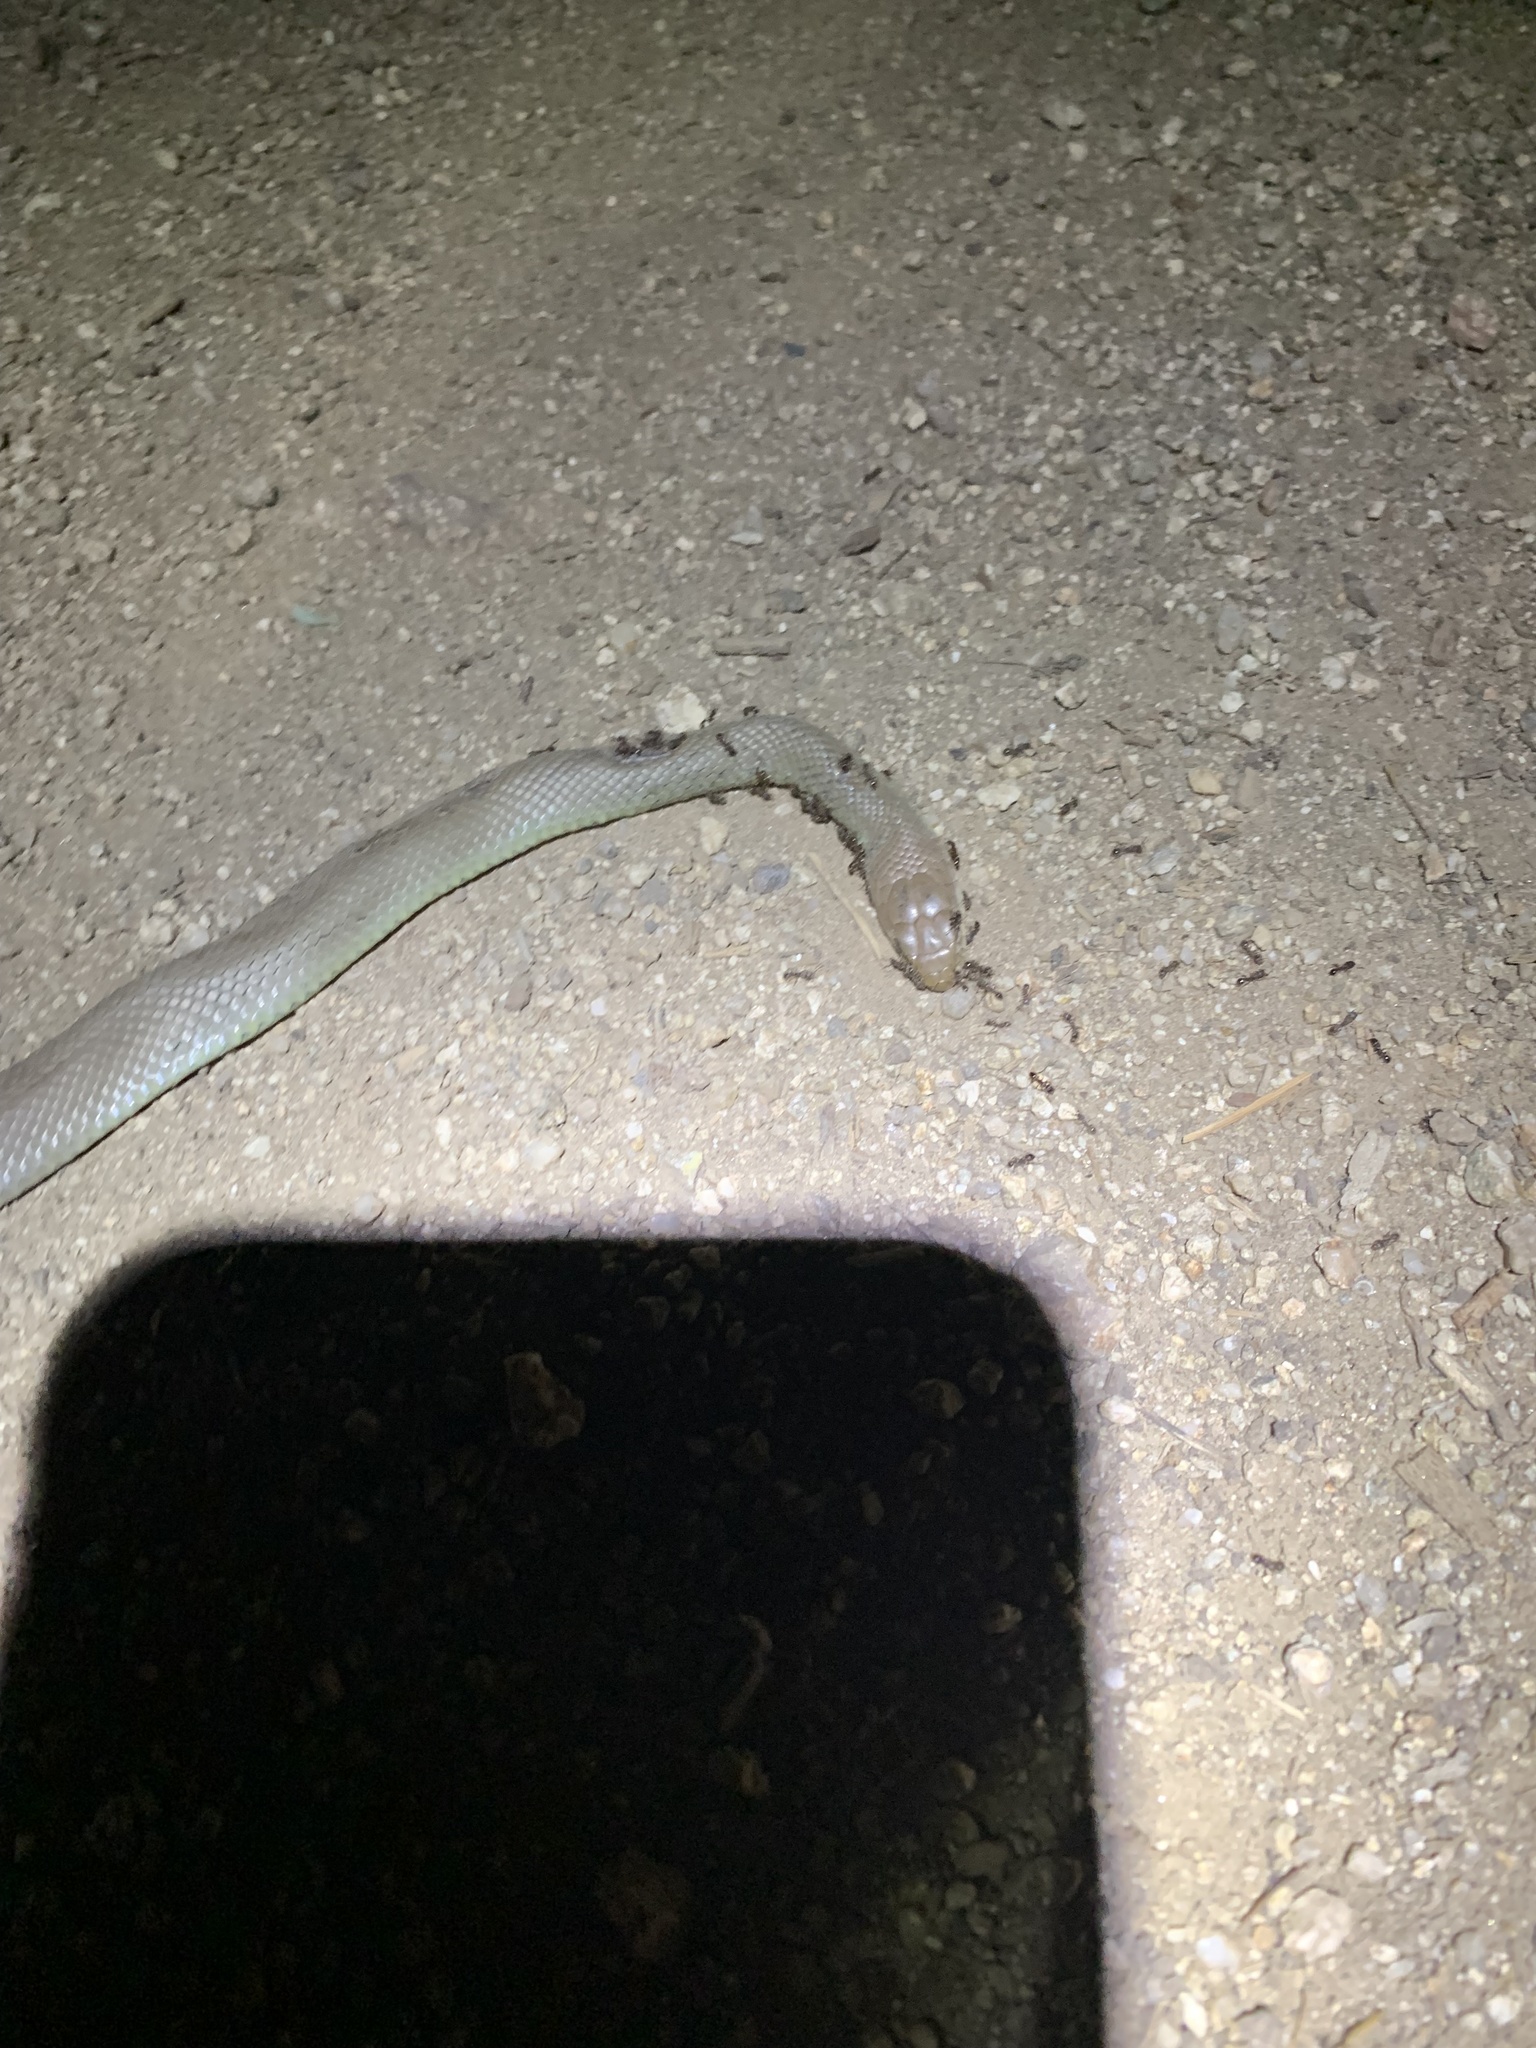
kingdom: Animalia
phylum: Chordata
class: Squamata
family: Colubridae
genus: Coluber
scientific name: Coluber constrictor
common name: Eastern racer
